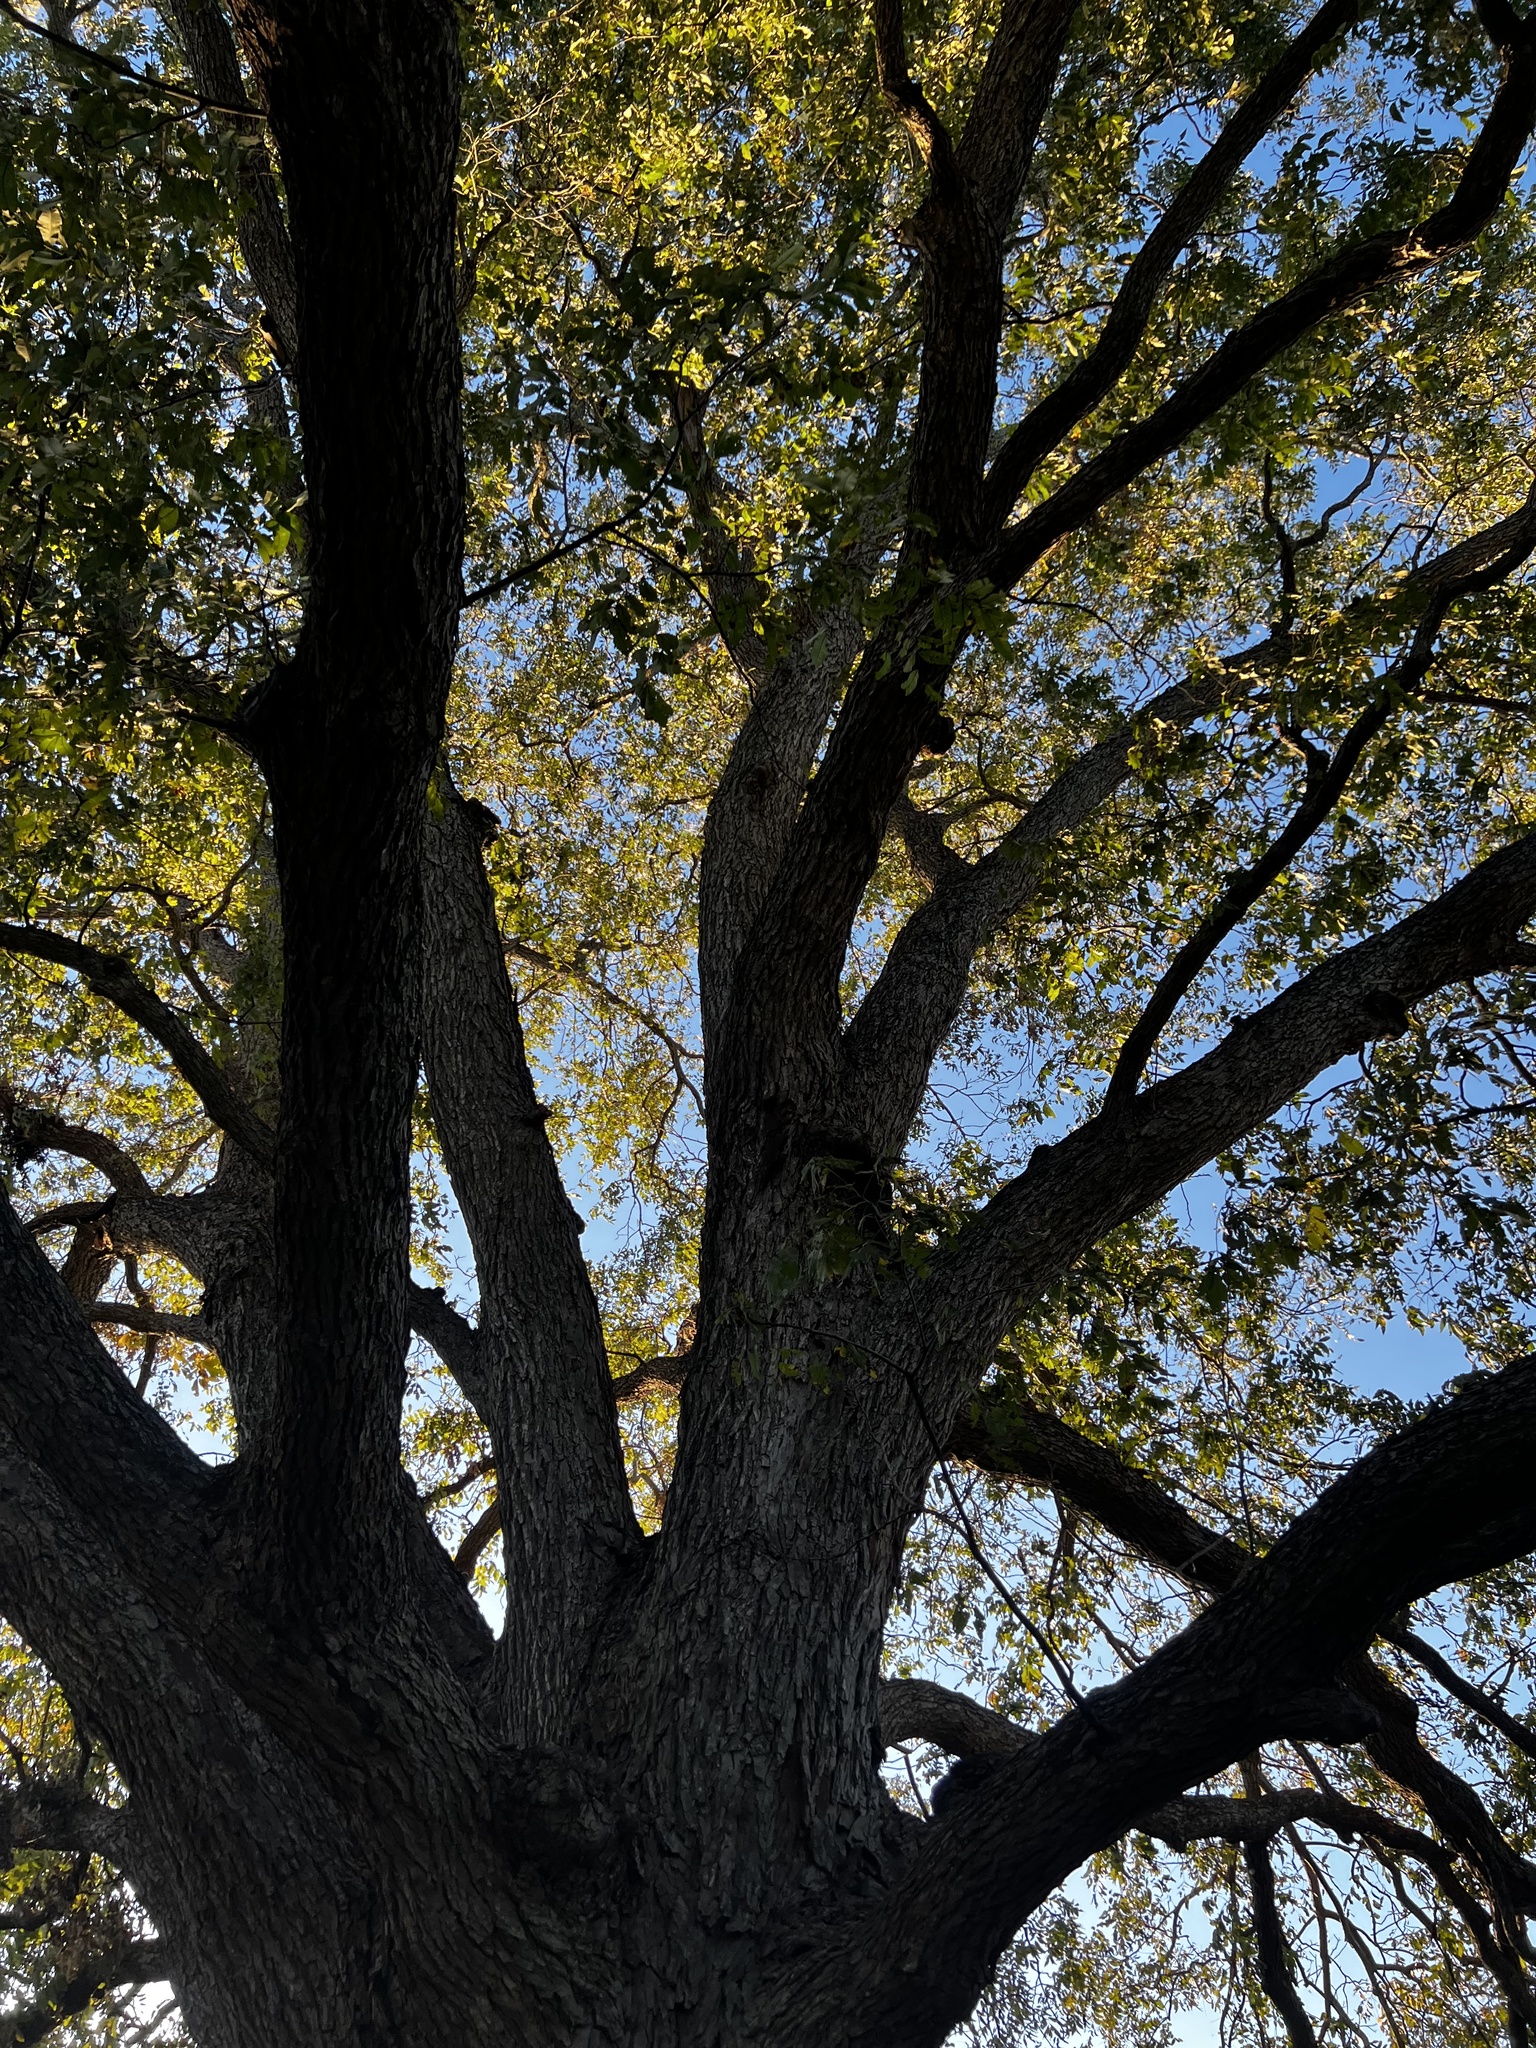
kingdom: Plantae
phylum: Tracheophyta
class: Magnoliopsida
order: Fagales
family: Juglandaceae
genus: Carya
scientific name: Carya illinoinensis
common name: Pecan
